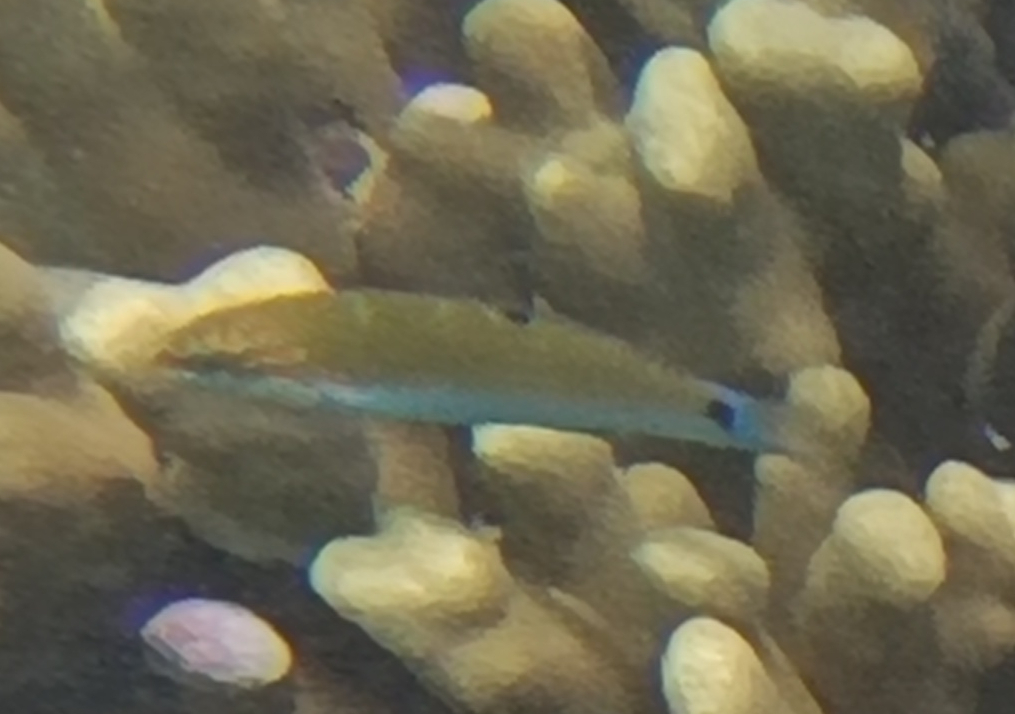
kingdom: Animalia
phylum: Chordata
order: Perciformes
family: Labridae
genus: Thalassoma
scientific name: Thalassoma lunare
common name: Blue wrasse
